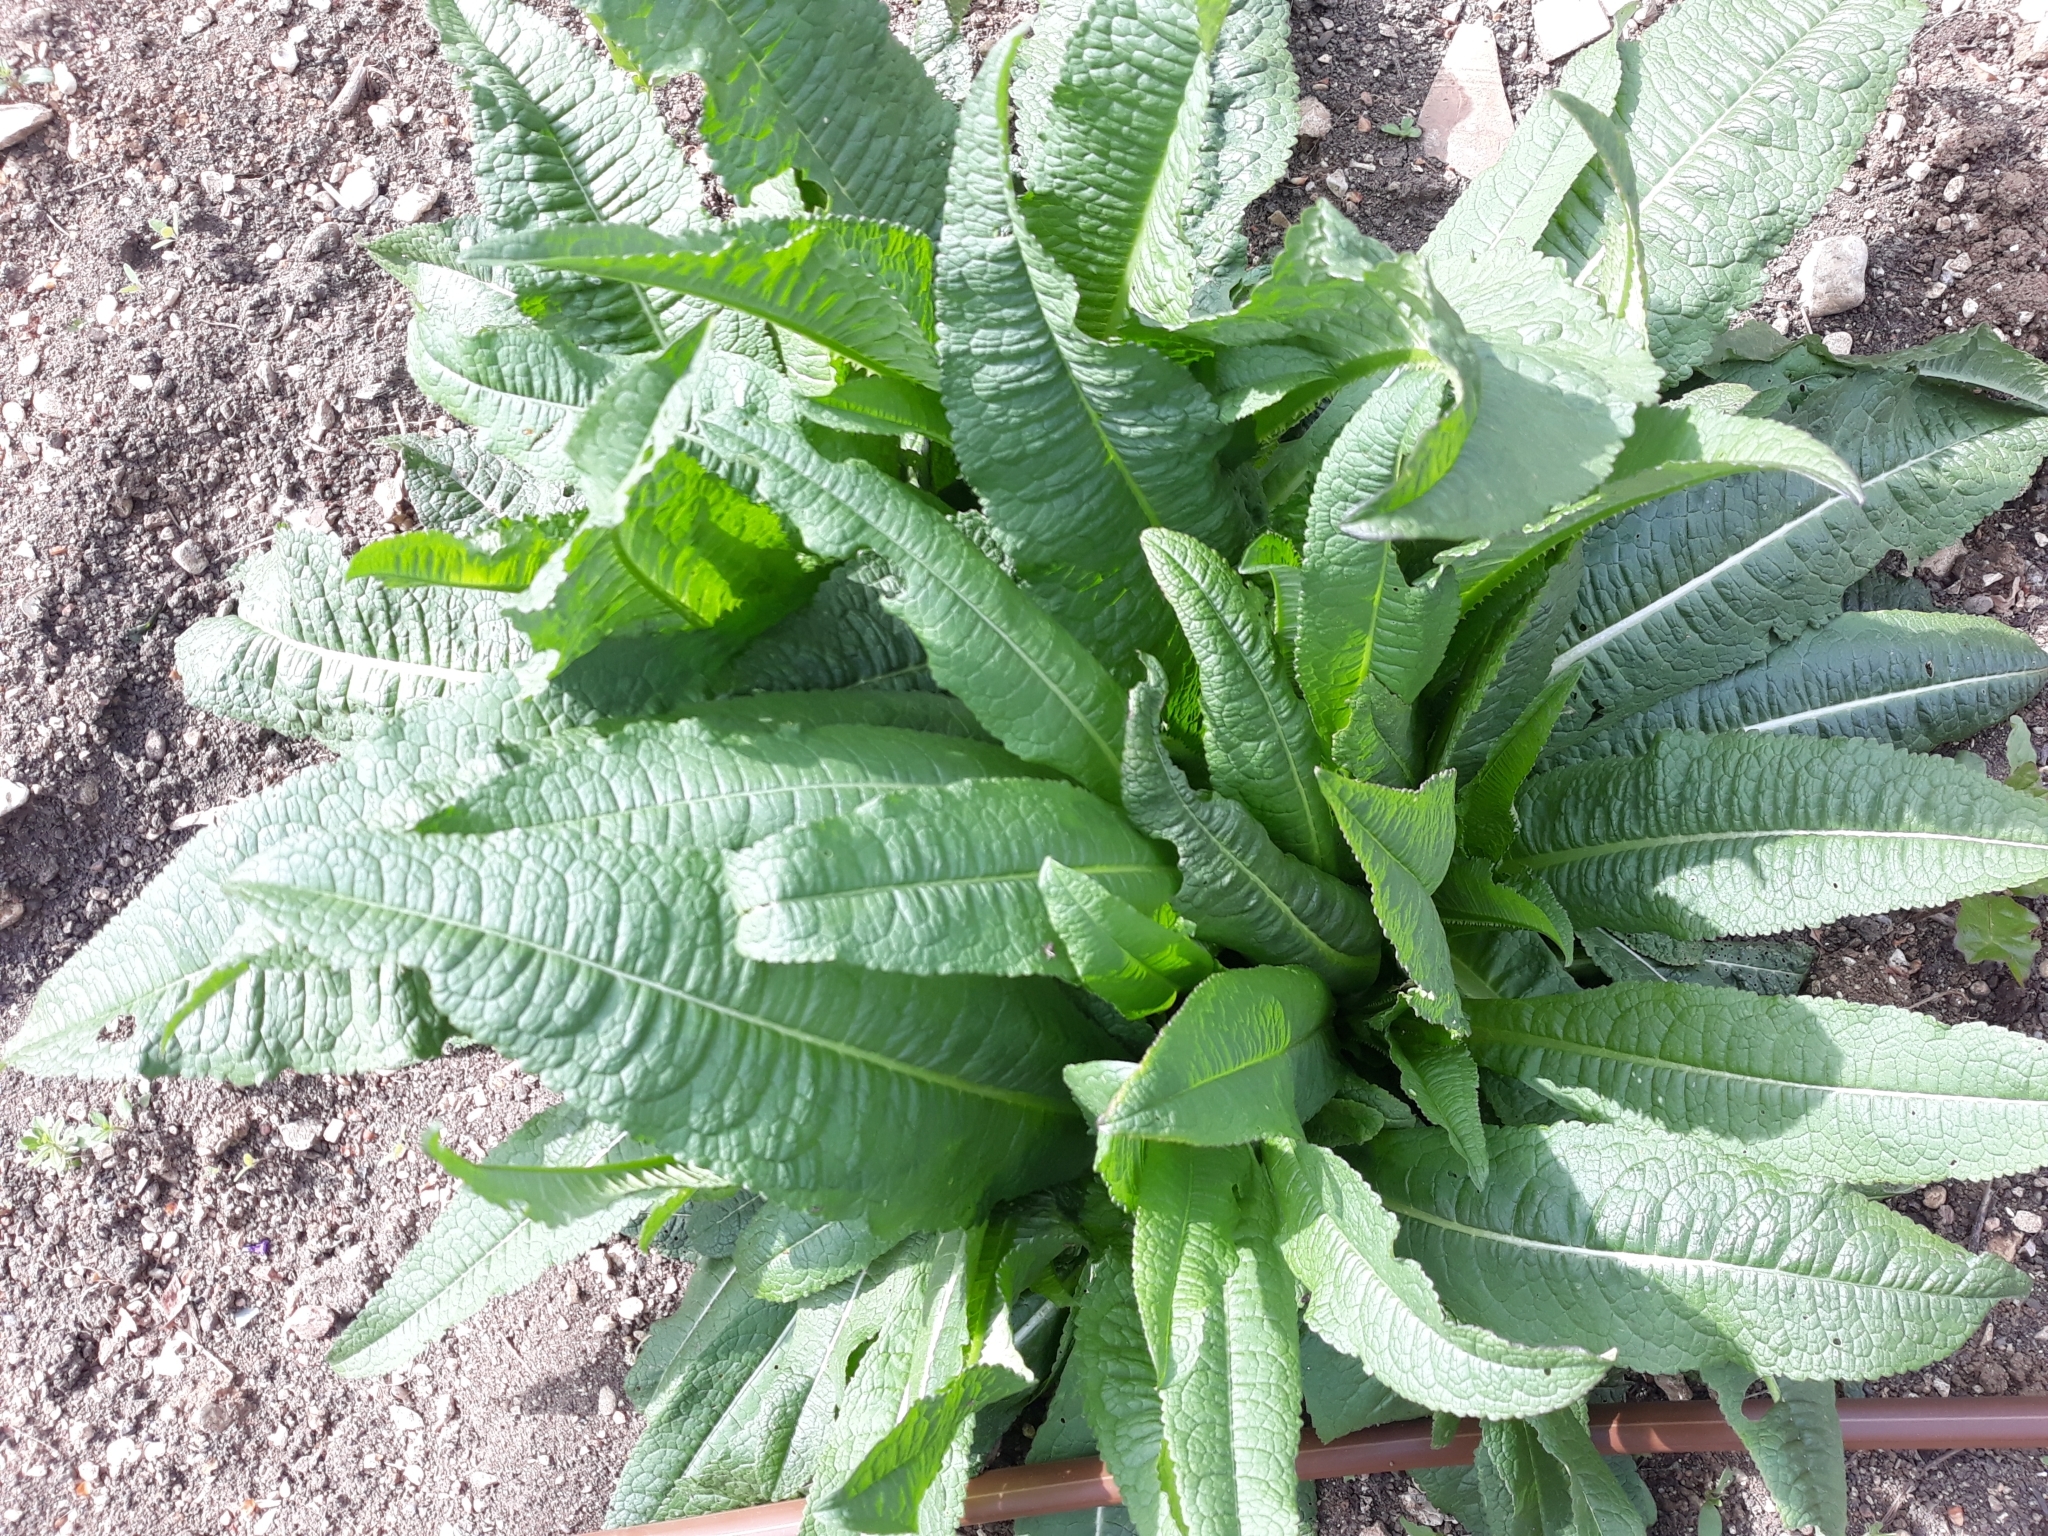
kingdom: Plantae
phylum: Tracheophyta
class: Magnoliopsida
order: Dipsacales
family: Caprifoliaceae
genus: Dipsacus
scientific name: Dipsacus fullonum
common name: Teasel
